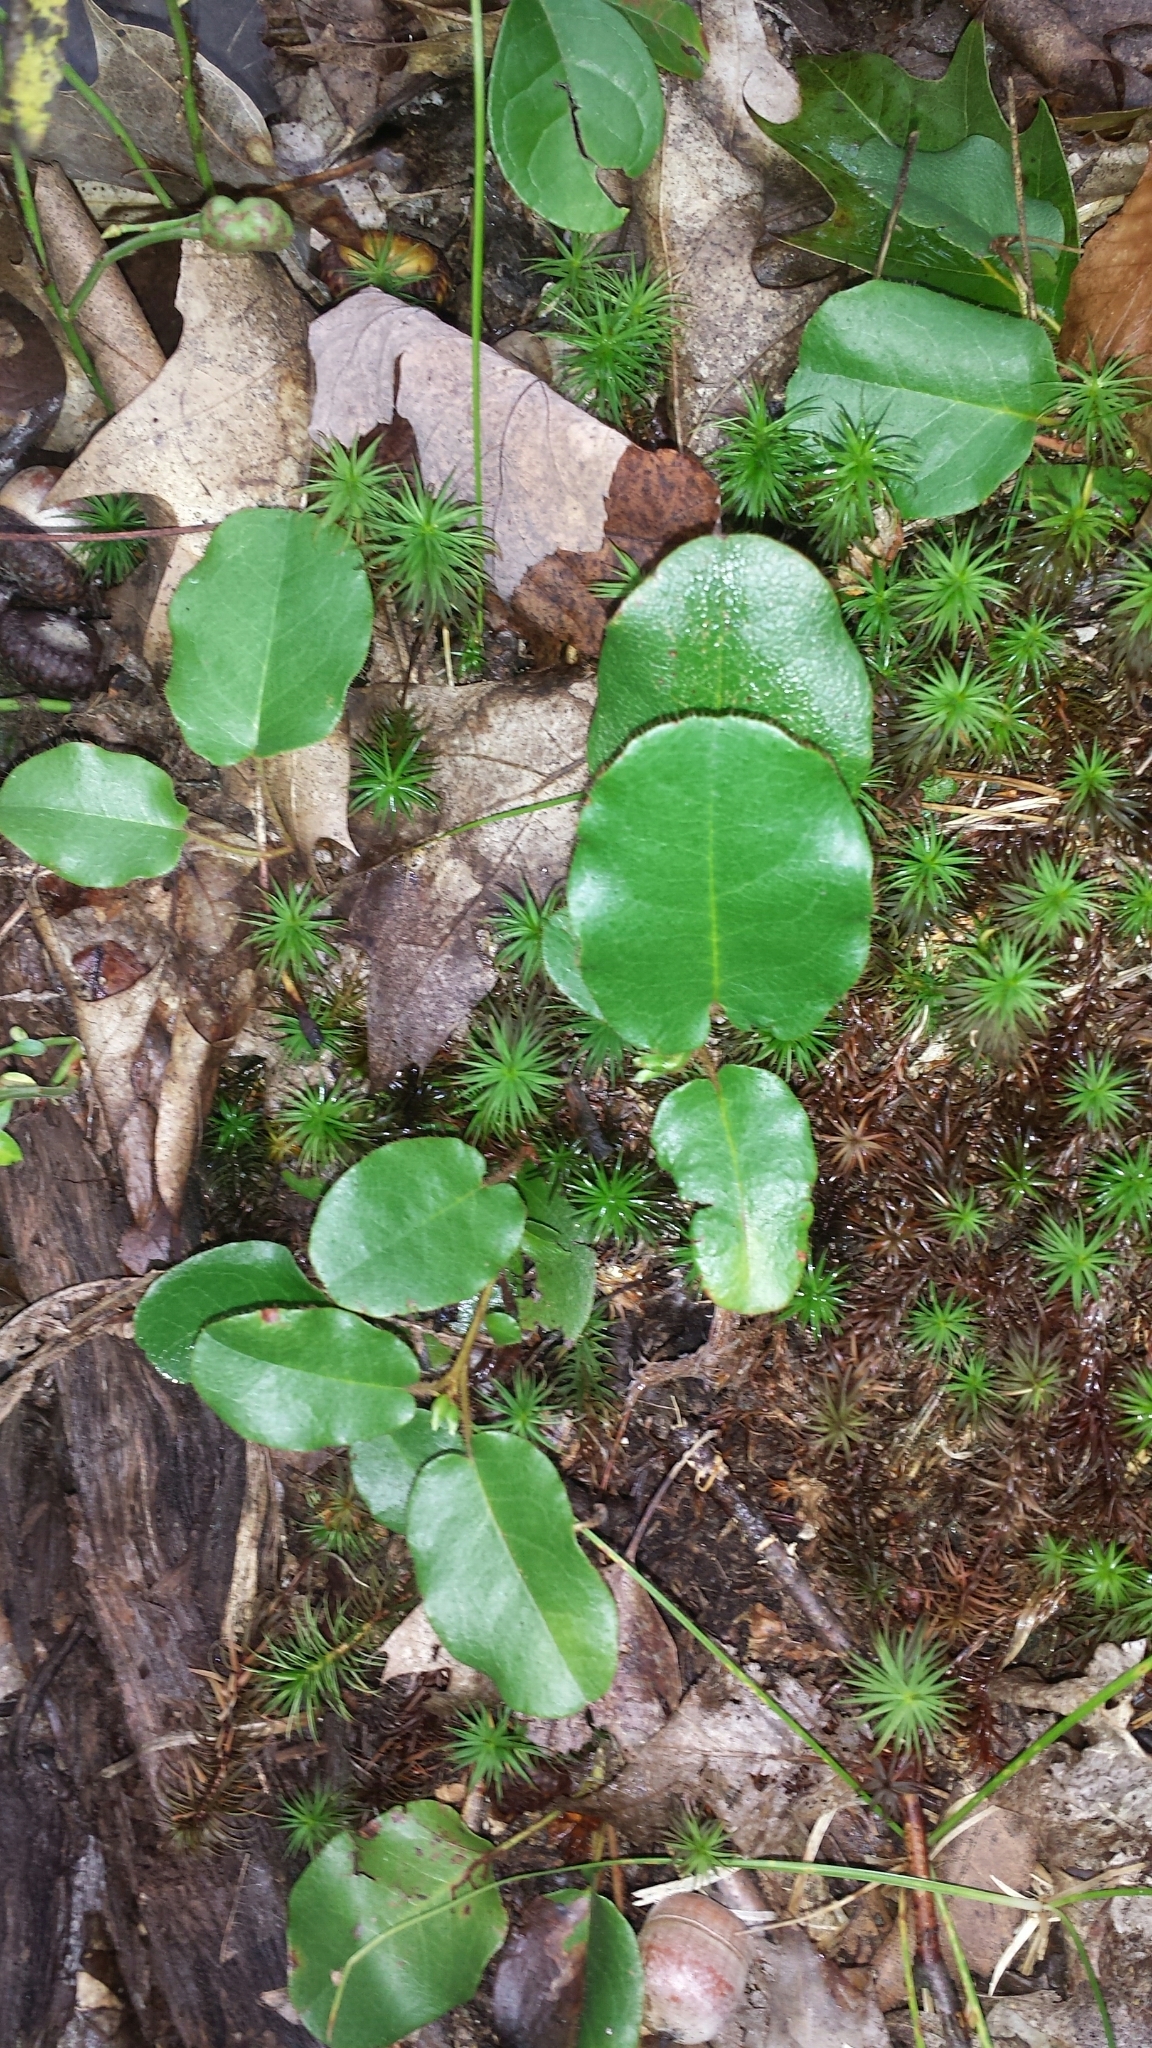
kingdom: Plantae
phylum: Tracheophyta
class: Magnoliopsida
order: Ericales
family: Ericaceae
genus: Epigaea
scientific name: Epigaea repens
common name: Gravelroot
